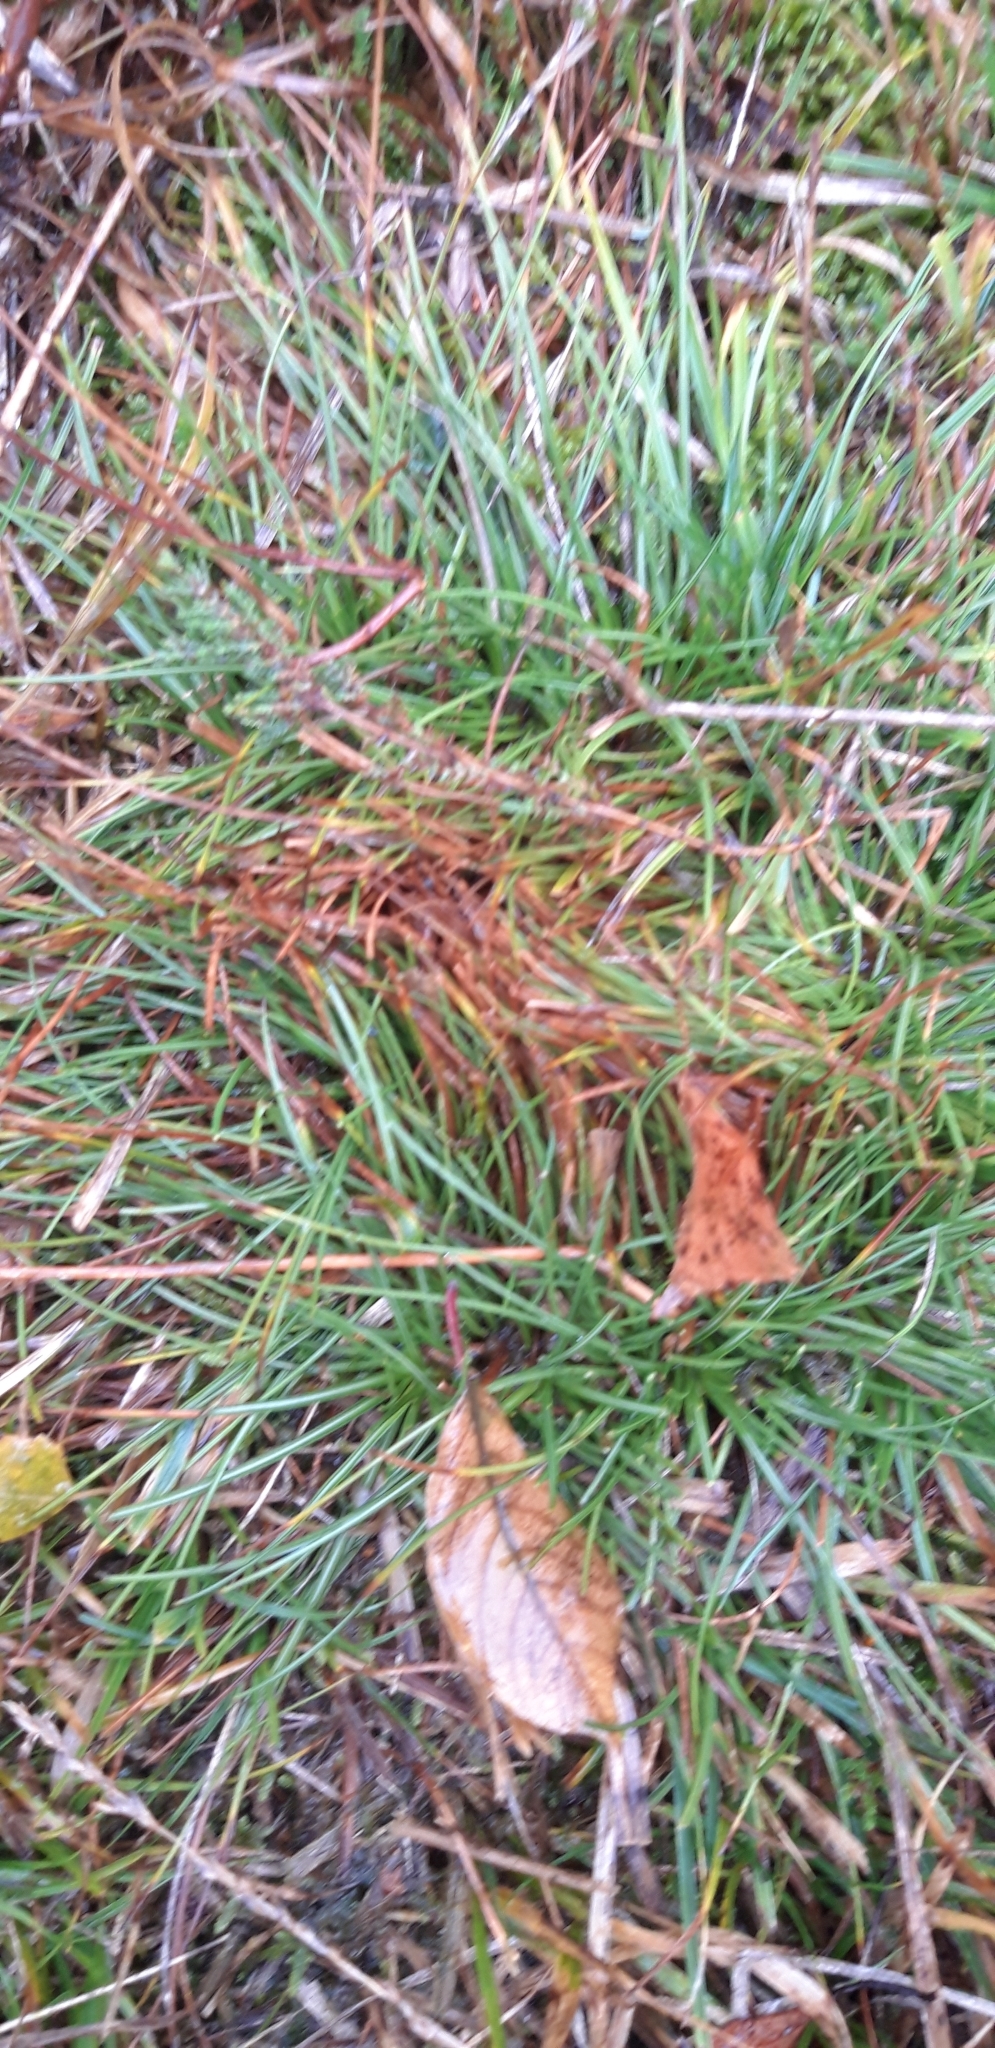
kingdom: Plantae
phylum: Tracheophyta
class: Liliopsida
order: Poales
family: Juncaceae
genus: Juncus
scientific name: Juncus squarrosus
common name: Heath rush
